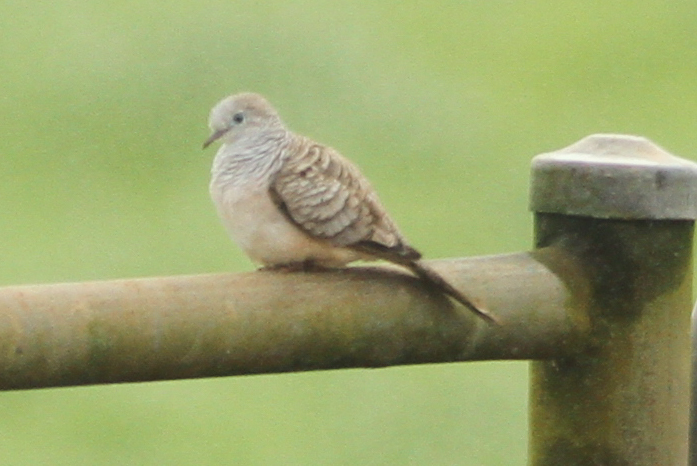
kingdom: Animalia
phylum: Chordata
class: Aves
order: Columbiformes
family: Columbidae
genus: Geopelia
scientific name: Geopelia placida
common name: Peaceful dove
